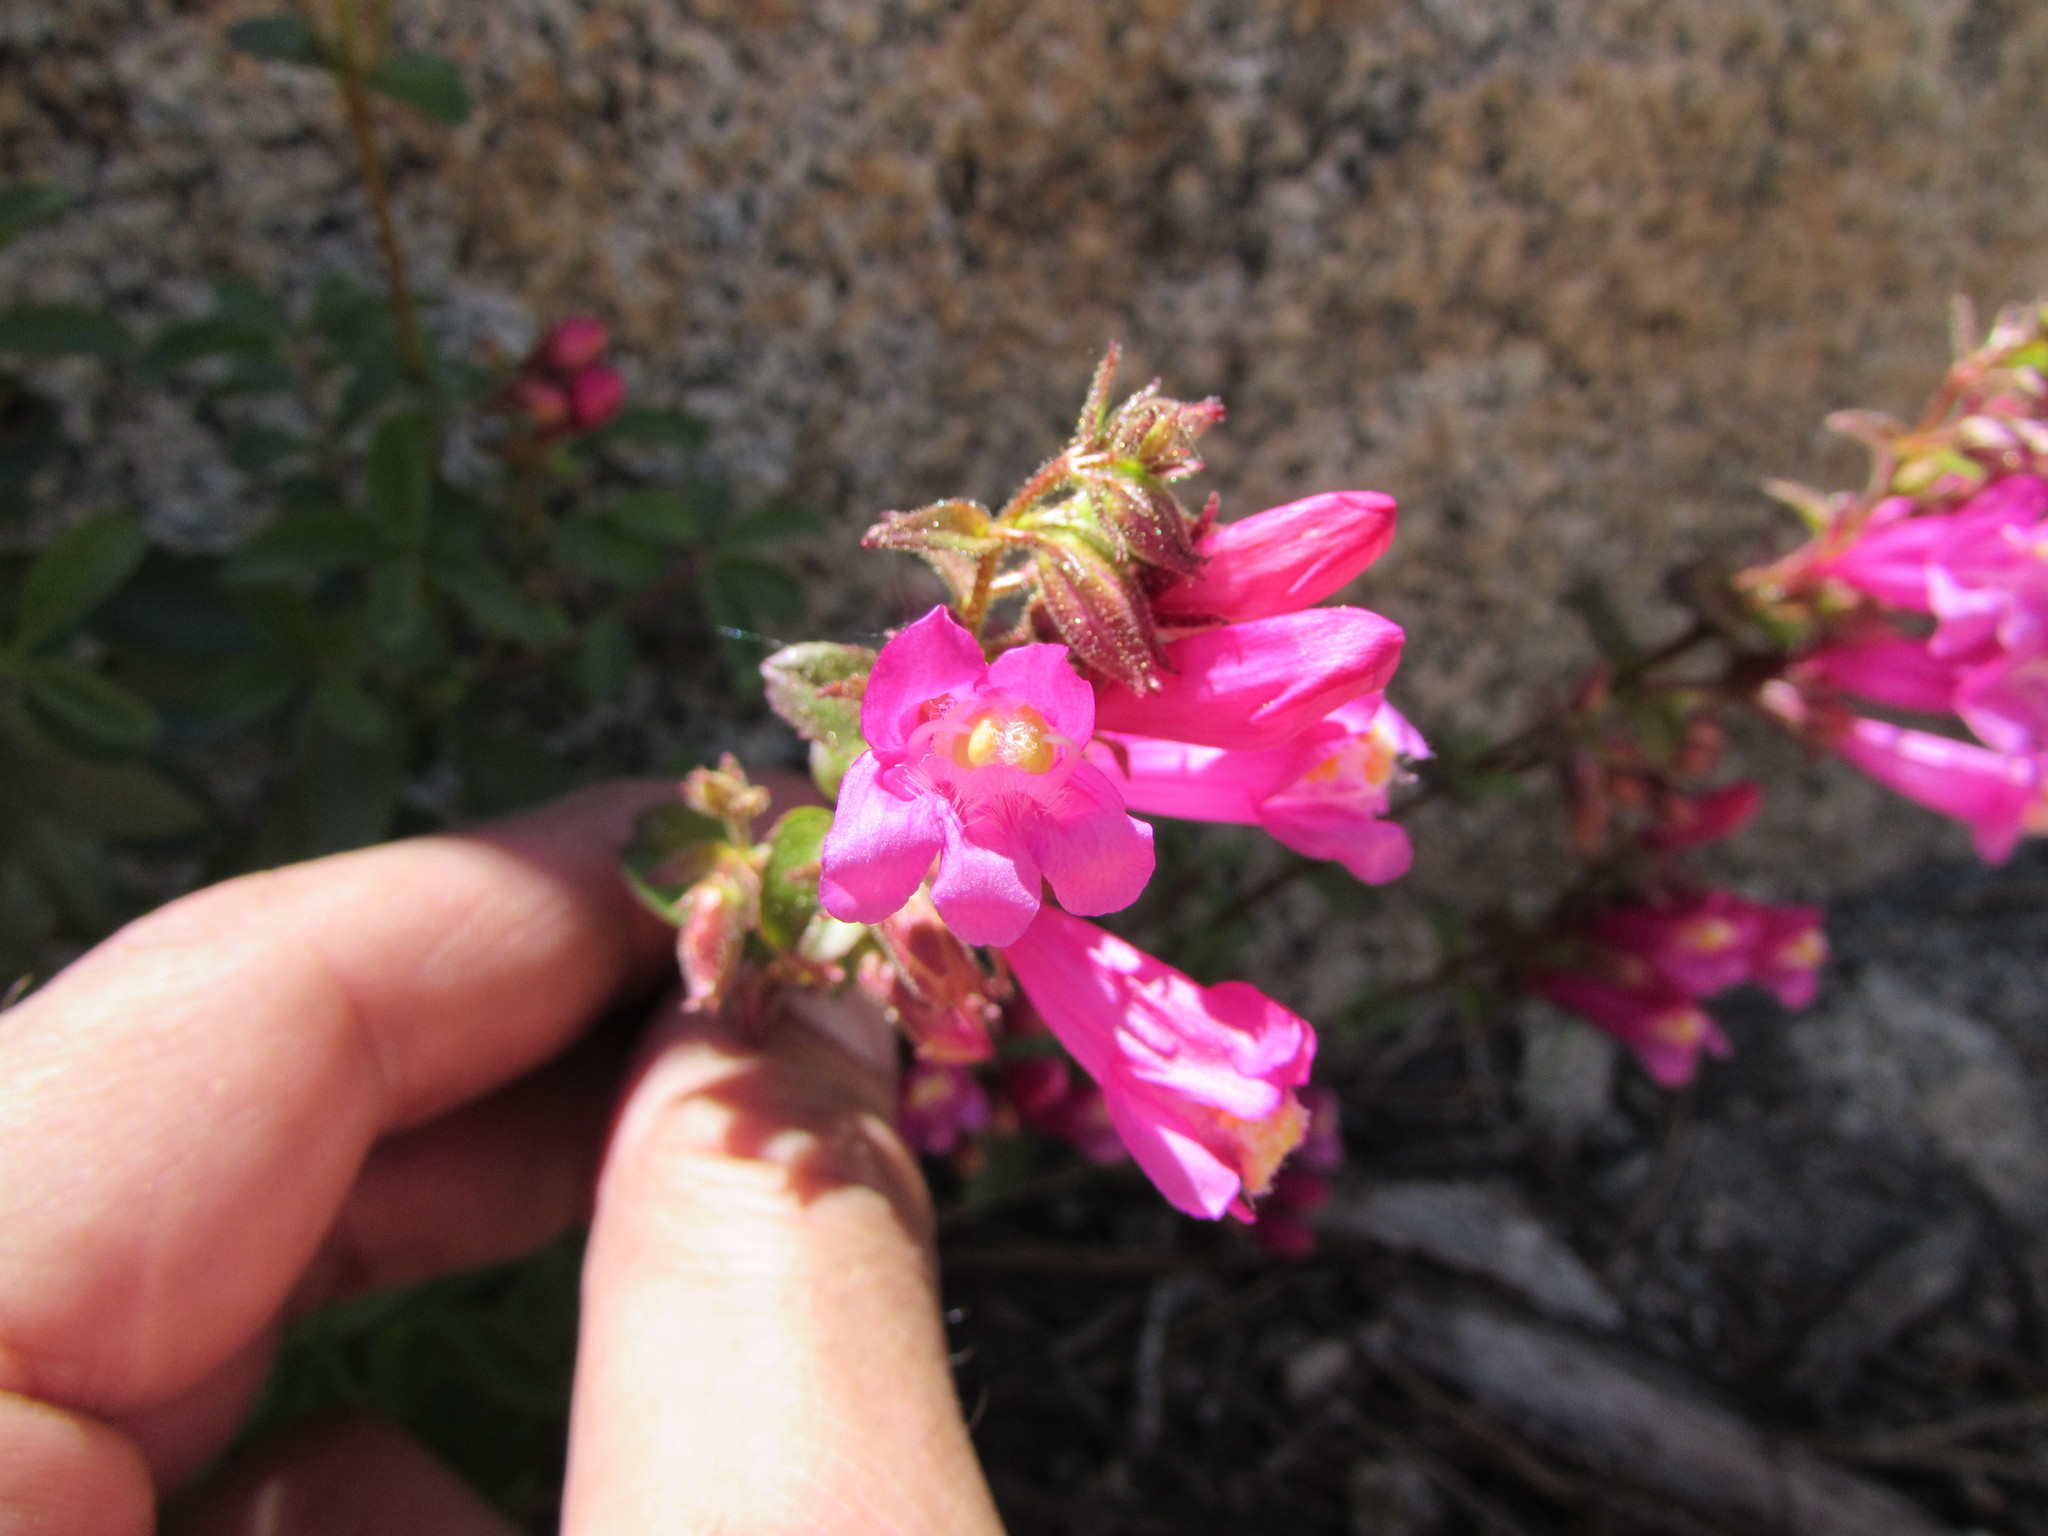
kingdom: Plantae
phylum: Tracheophyta
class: Magnoliopsida
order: Lamiales
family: Plantaginaceae
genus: Penstemon
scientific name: Penstemon newberryi
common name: Mountain-pride
